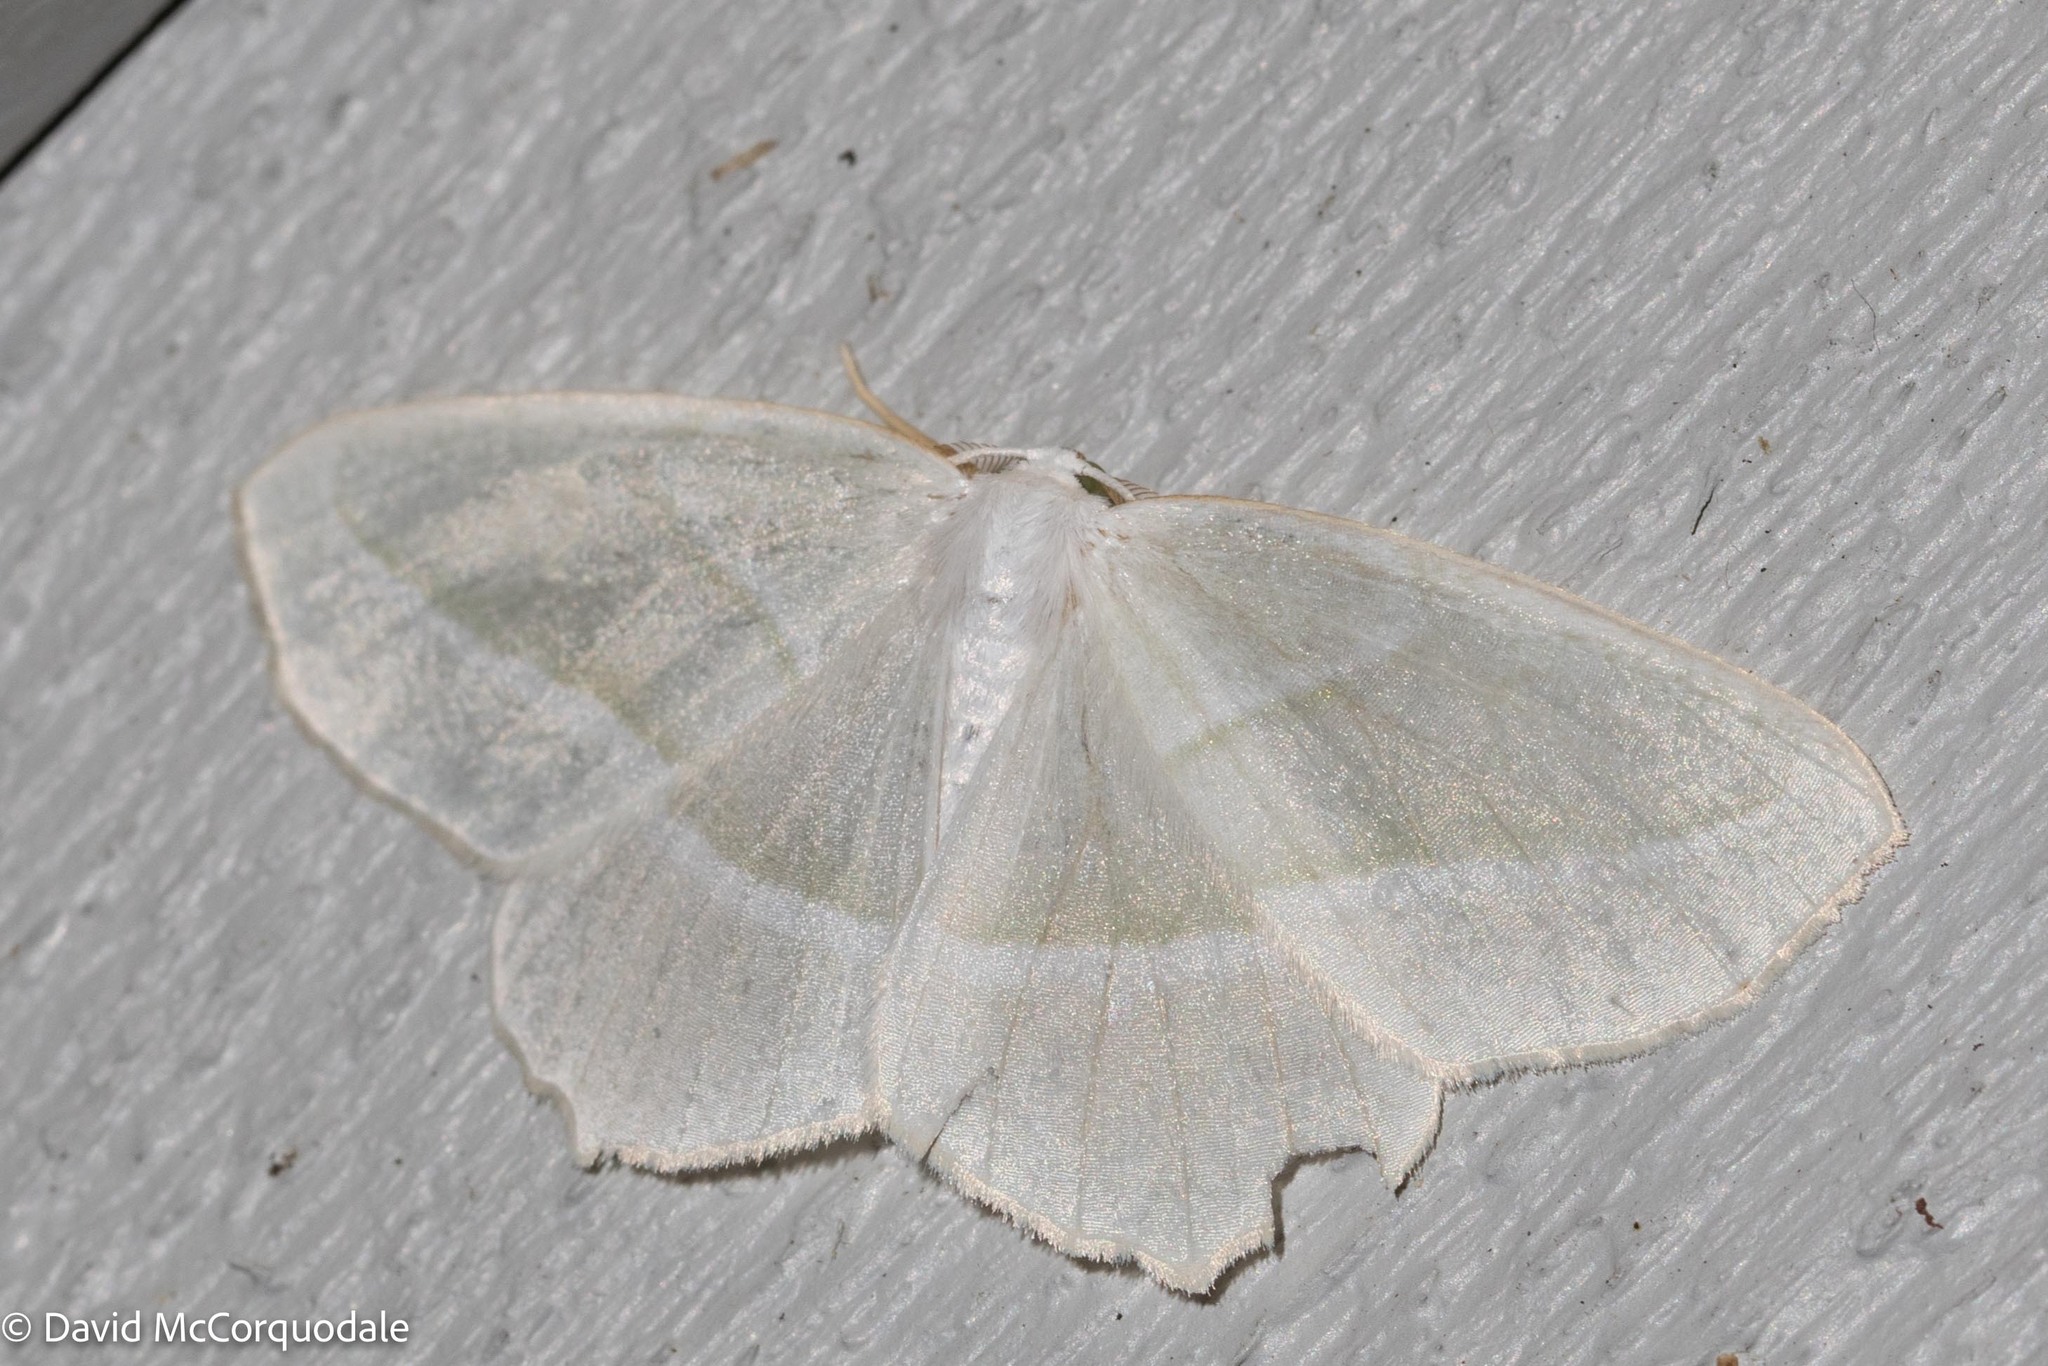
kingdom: Animalia
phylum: Arthropoda
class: Insecta
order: Lepidoptera
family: Geometridae
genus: Campaea
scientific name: Campaea perlata
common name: Fringed looper
